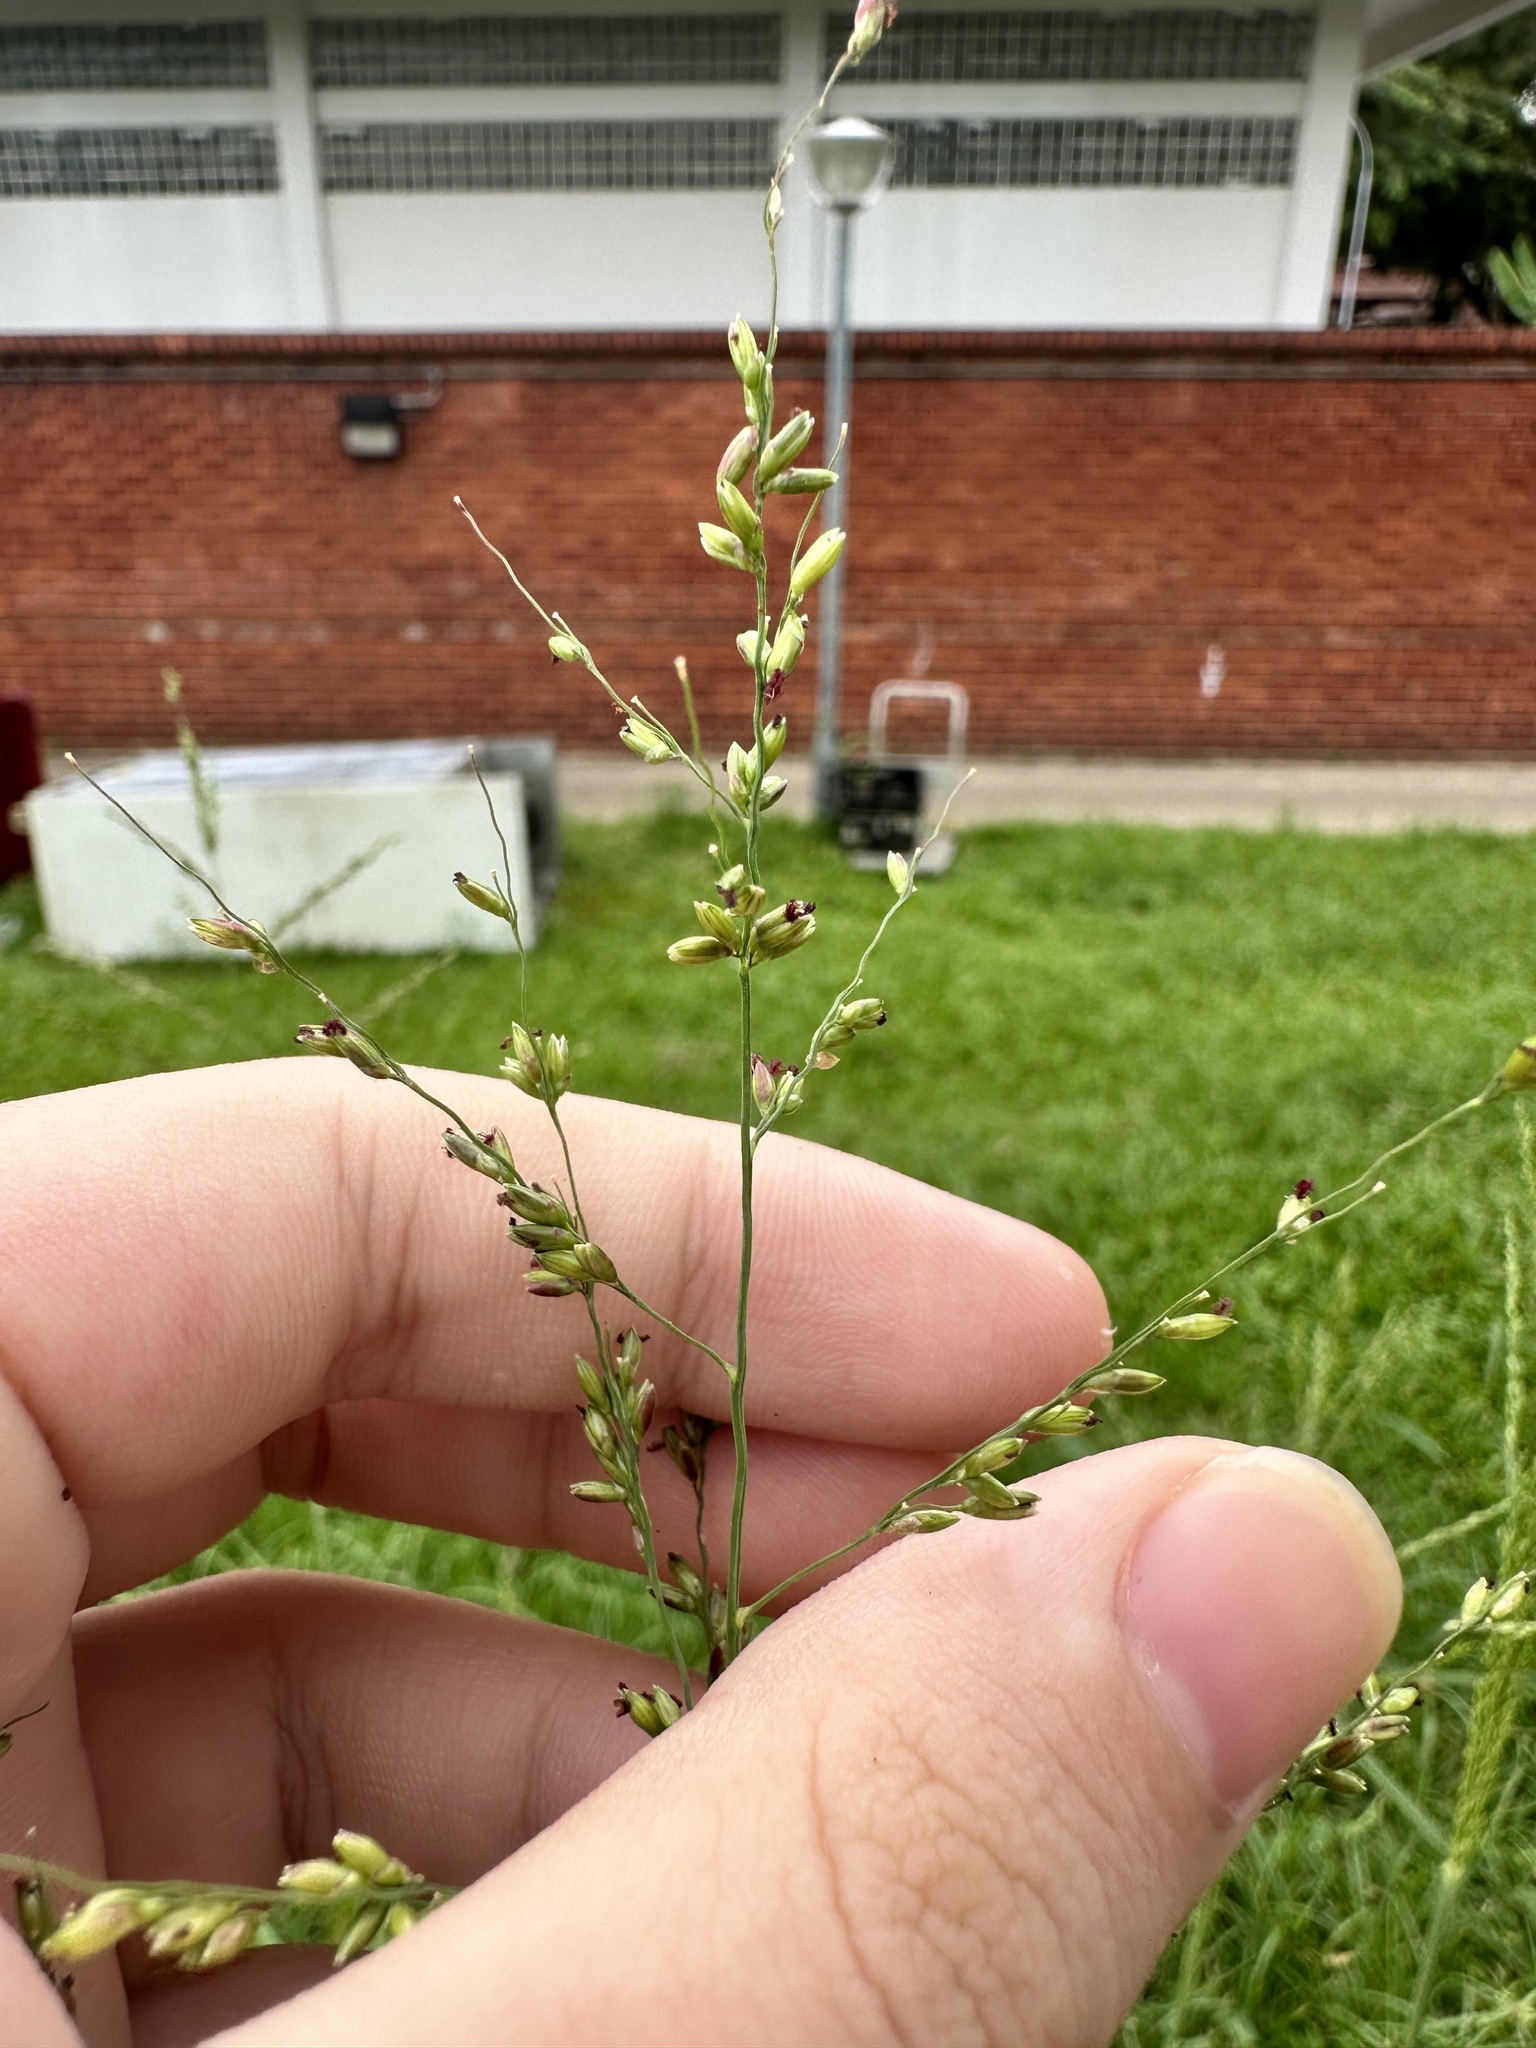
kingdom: Plantae
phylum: Tracheophyta
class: Liliopsida
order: Poales
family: Poaceae
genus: Megathyrsus
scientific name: Megathyrsus maximus
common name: Guineagrass
